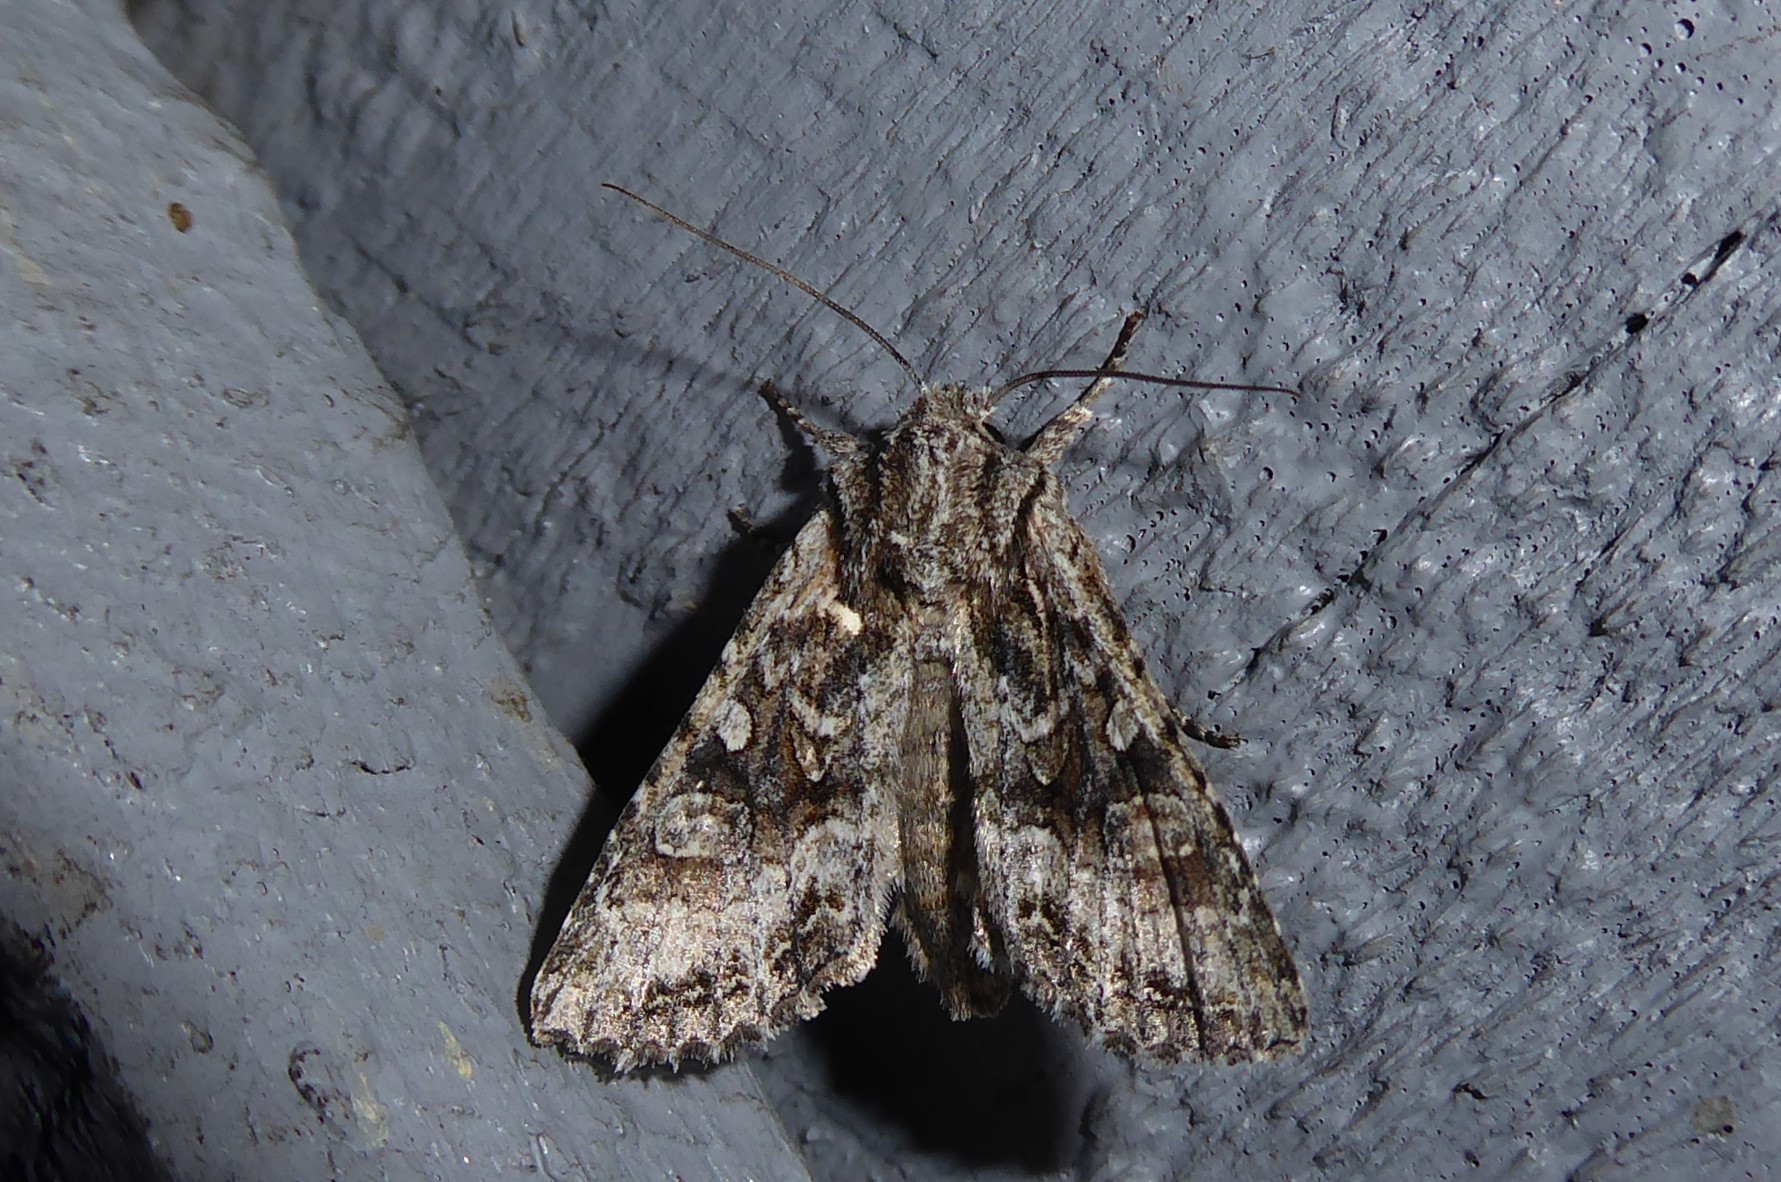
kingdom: Animalia
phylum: Arthropoda
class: Insecta
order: Lepidoptera
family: Noctuidae
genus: Ichneutica
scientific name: Ichneutica mutans
